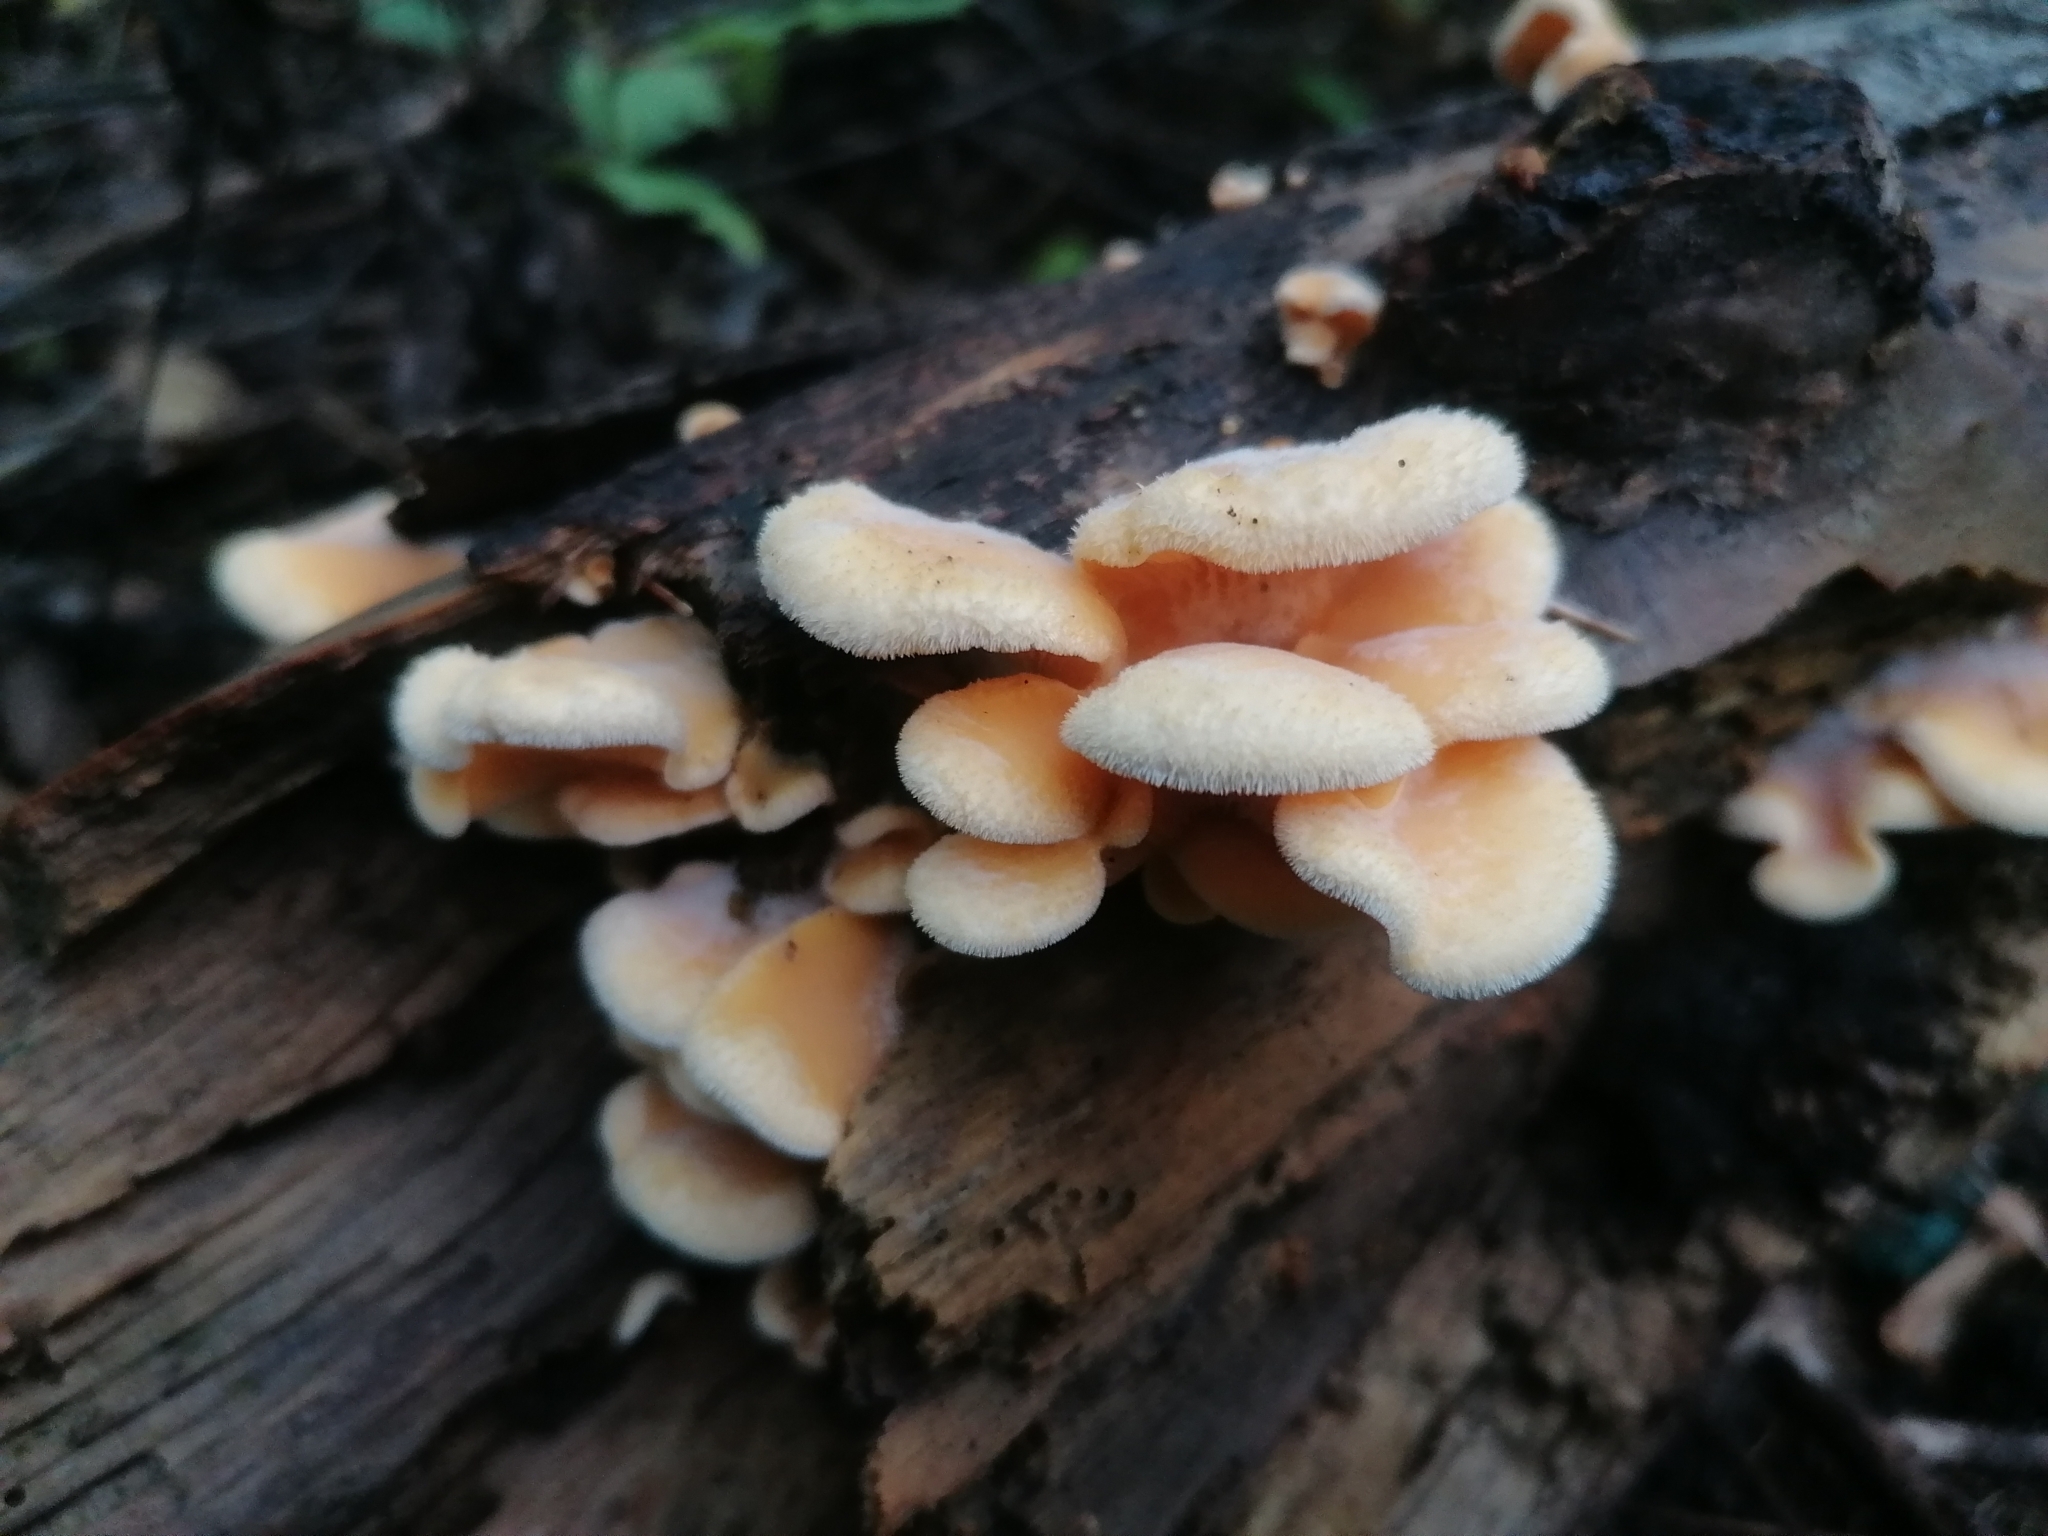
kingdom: Fungi
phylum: Basidiomycota
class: Agaricomycetes
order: Agaricales
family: Phyllotopsidaceae
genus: Phyllotopsis
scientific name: Phyllotopsis nidulans
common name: Orange mock oyster
